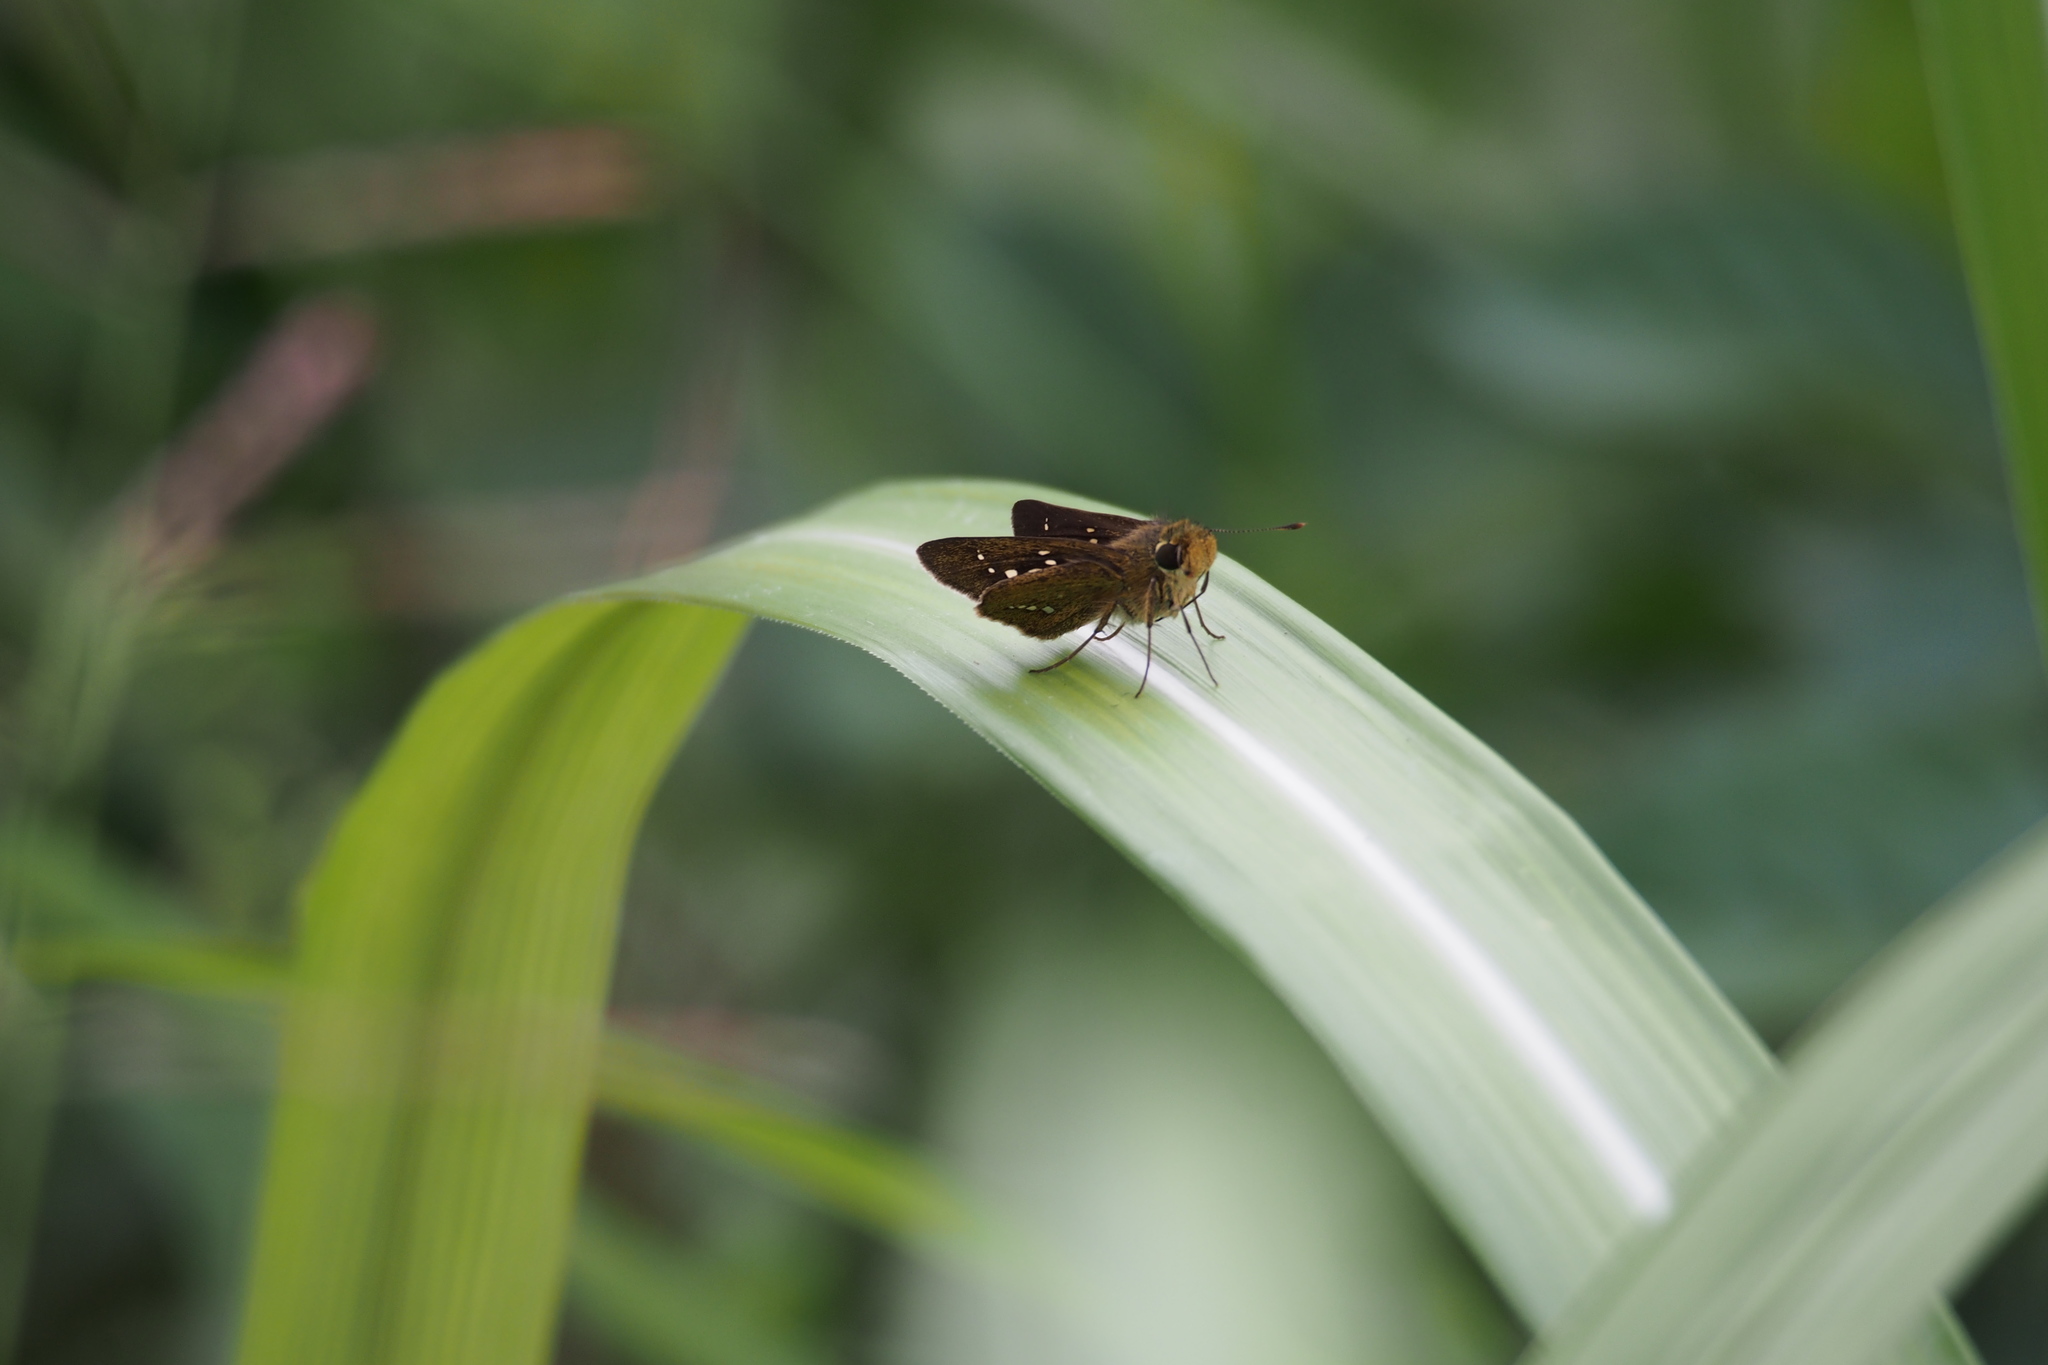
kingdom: Animalia
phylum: Arthropoda
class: Insecta
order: Lepidoptera
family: Hesperiidae
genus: Parnara
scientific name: Parnara guttatus
